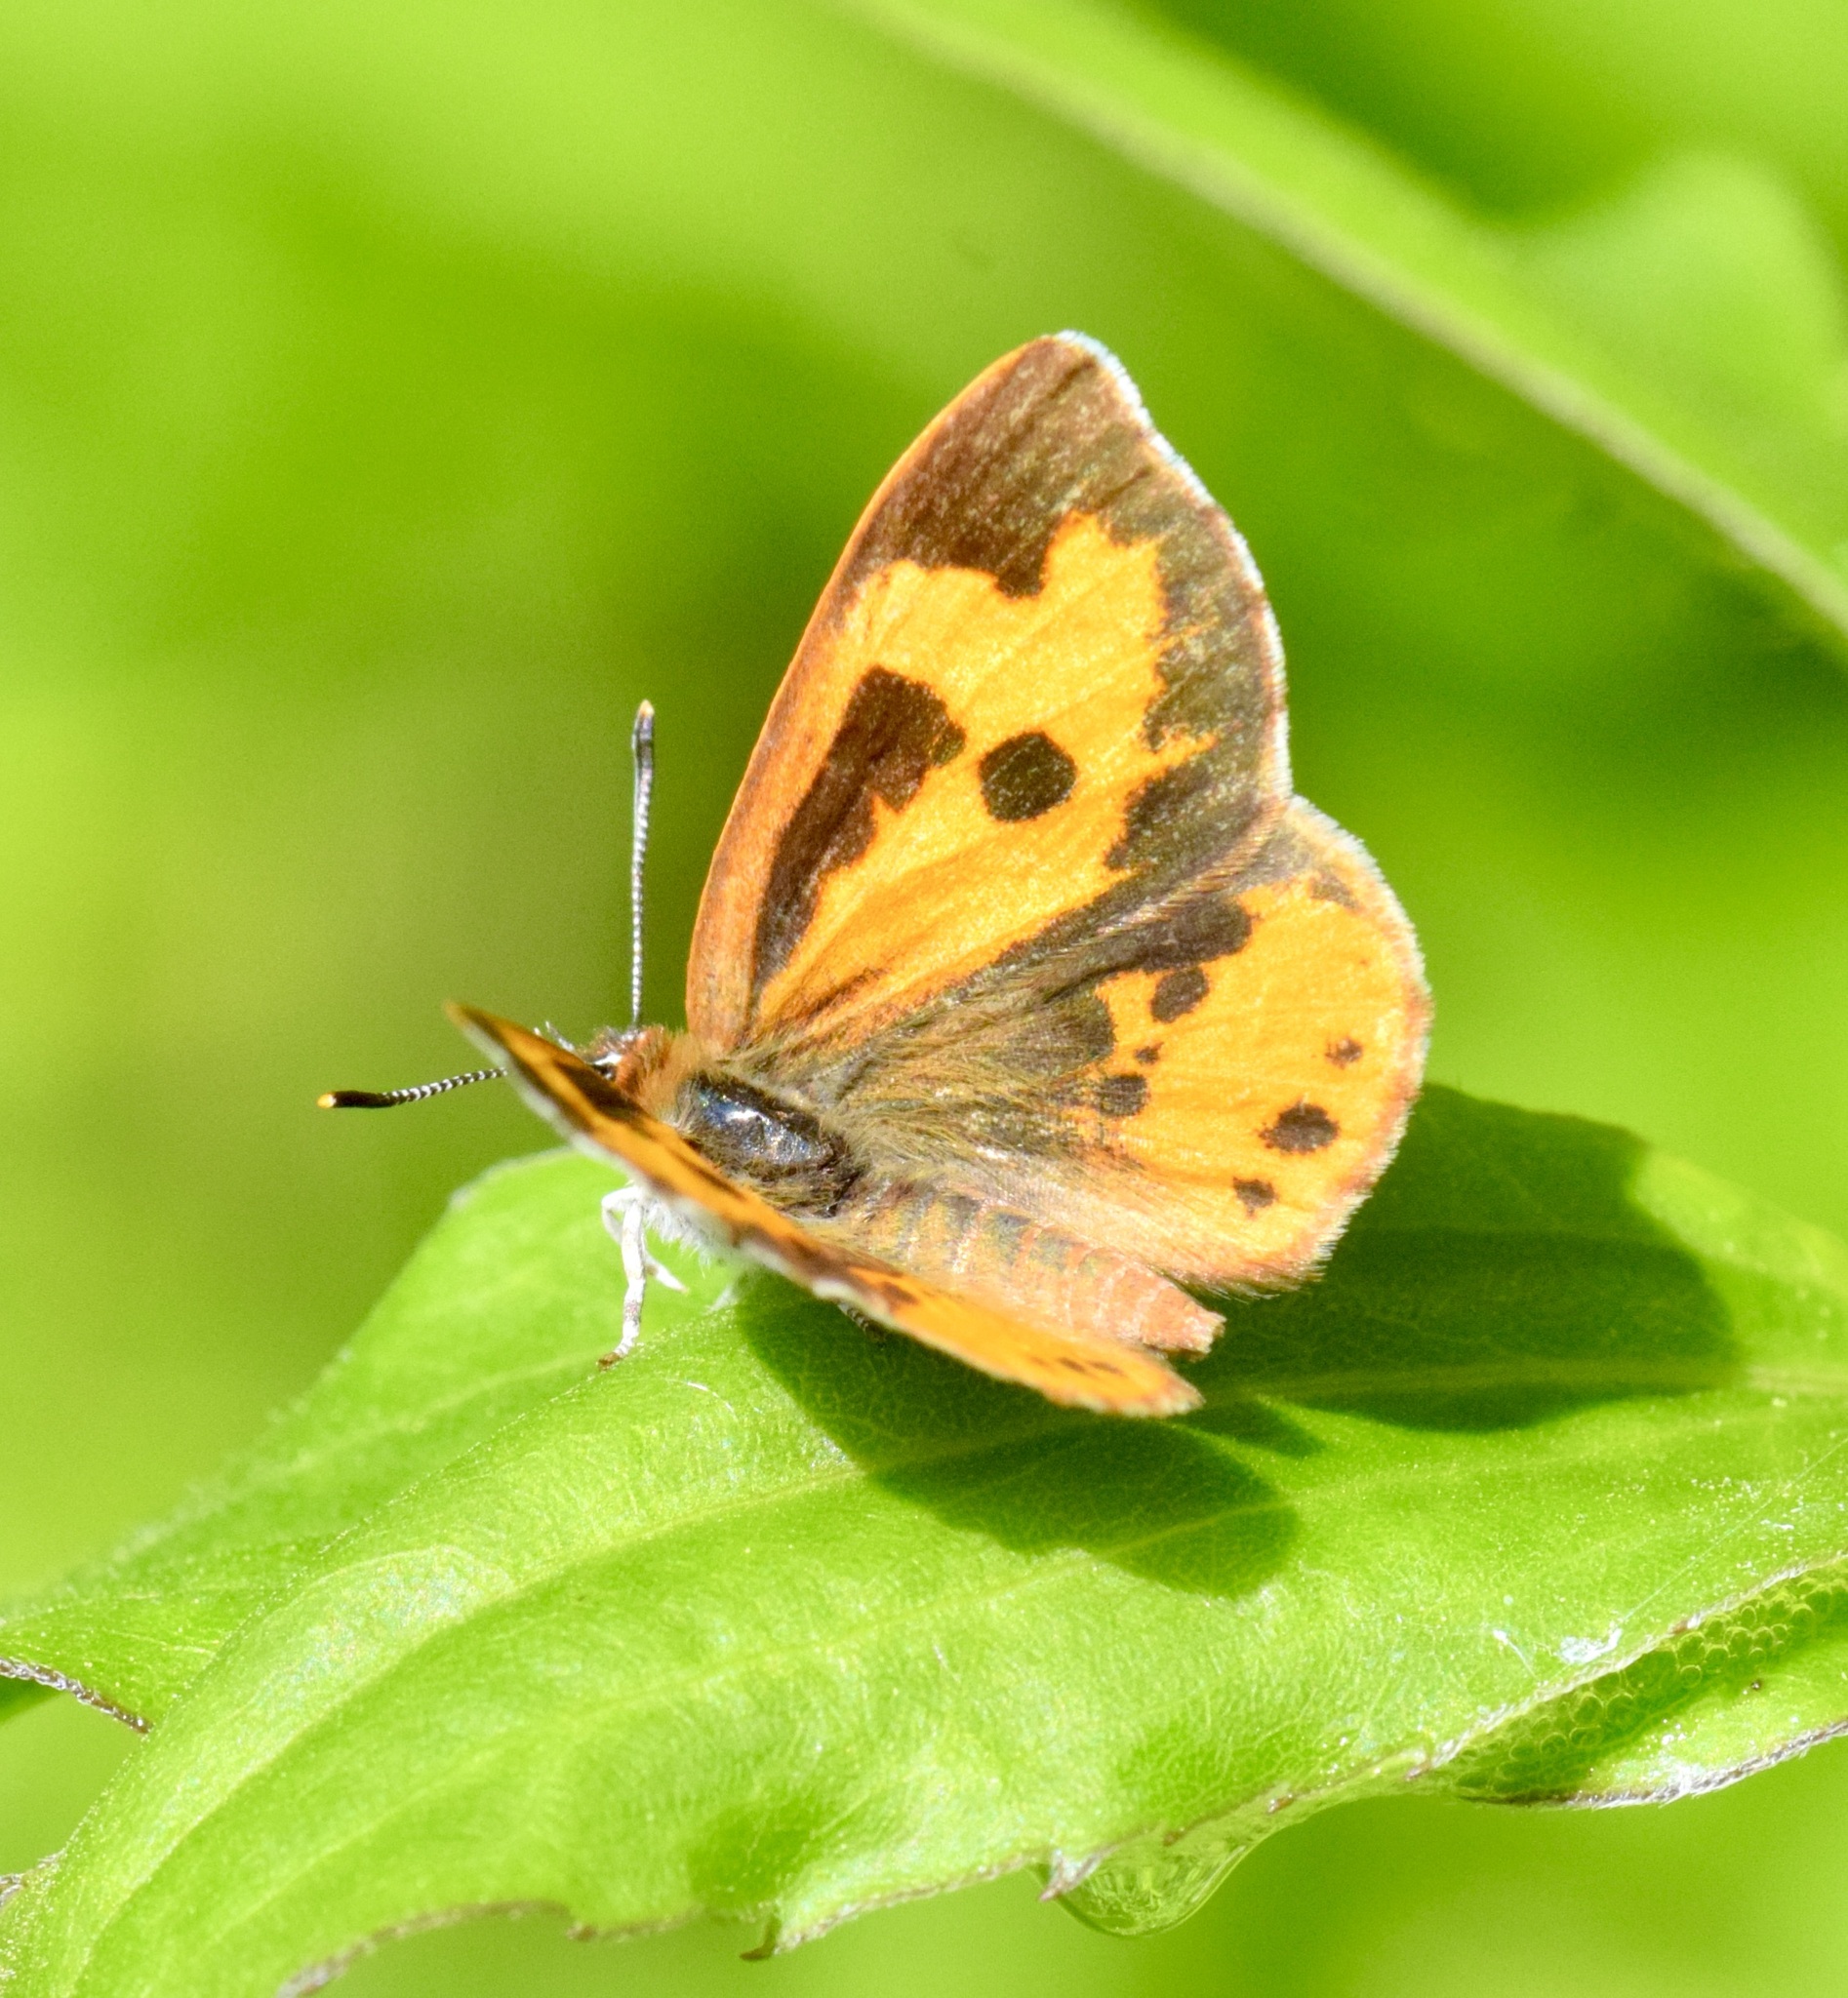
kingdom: Animalia
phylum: Arthropoda
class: Insecta
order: Lepidoptera
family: Lycaenidae
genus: Feniseca
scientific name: Feniseca tarquinius
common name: Harvester
